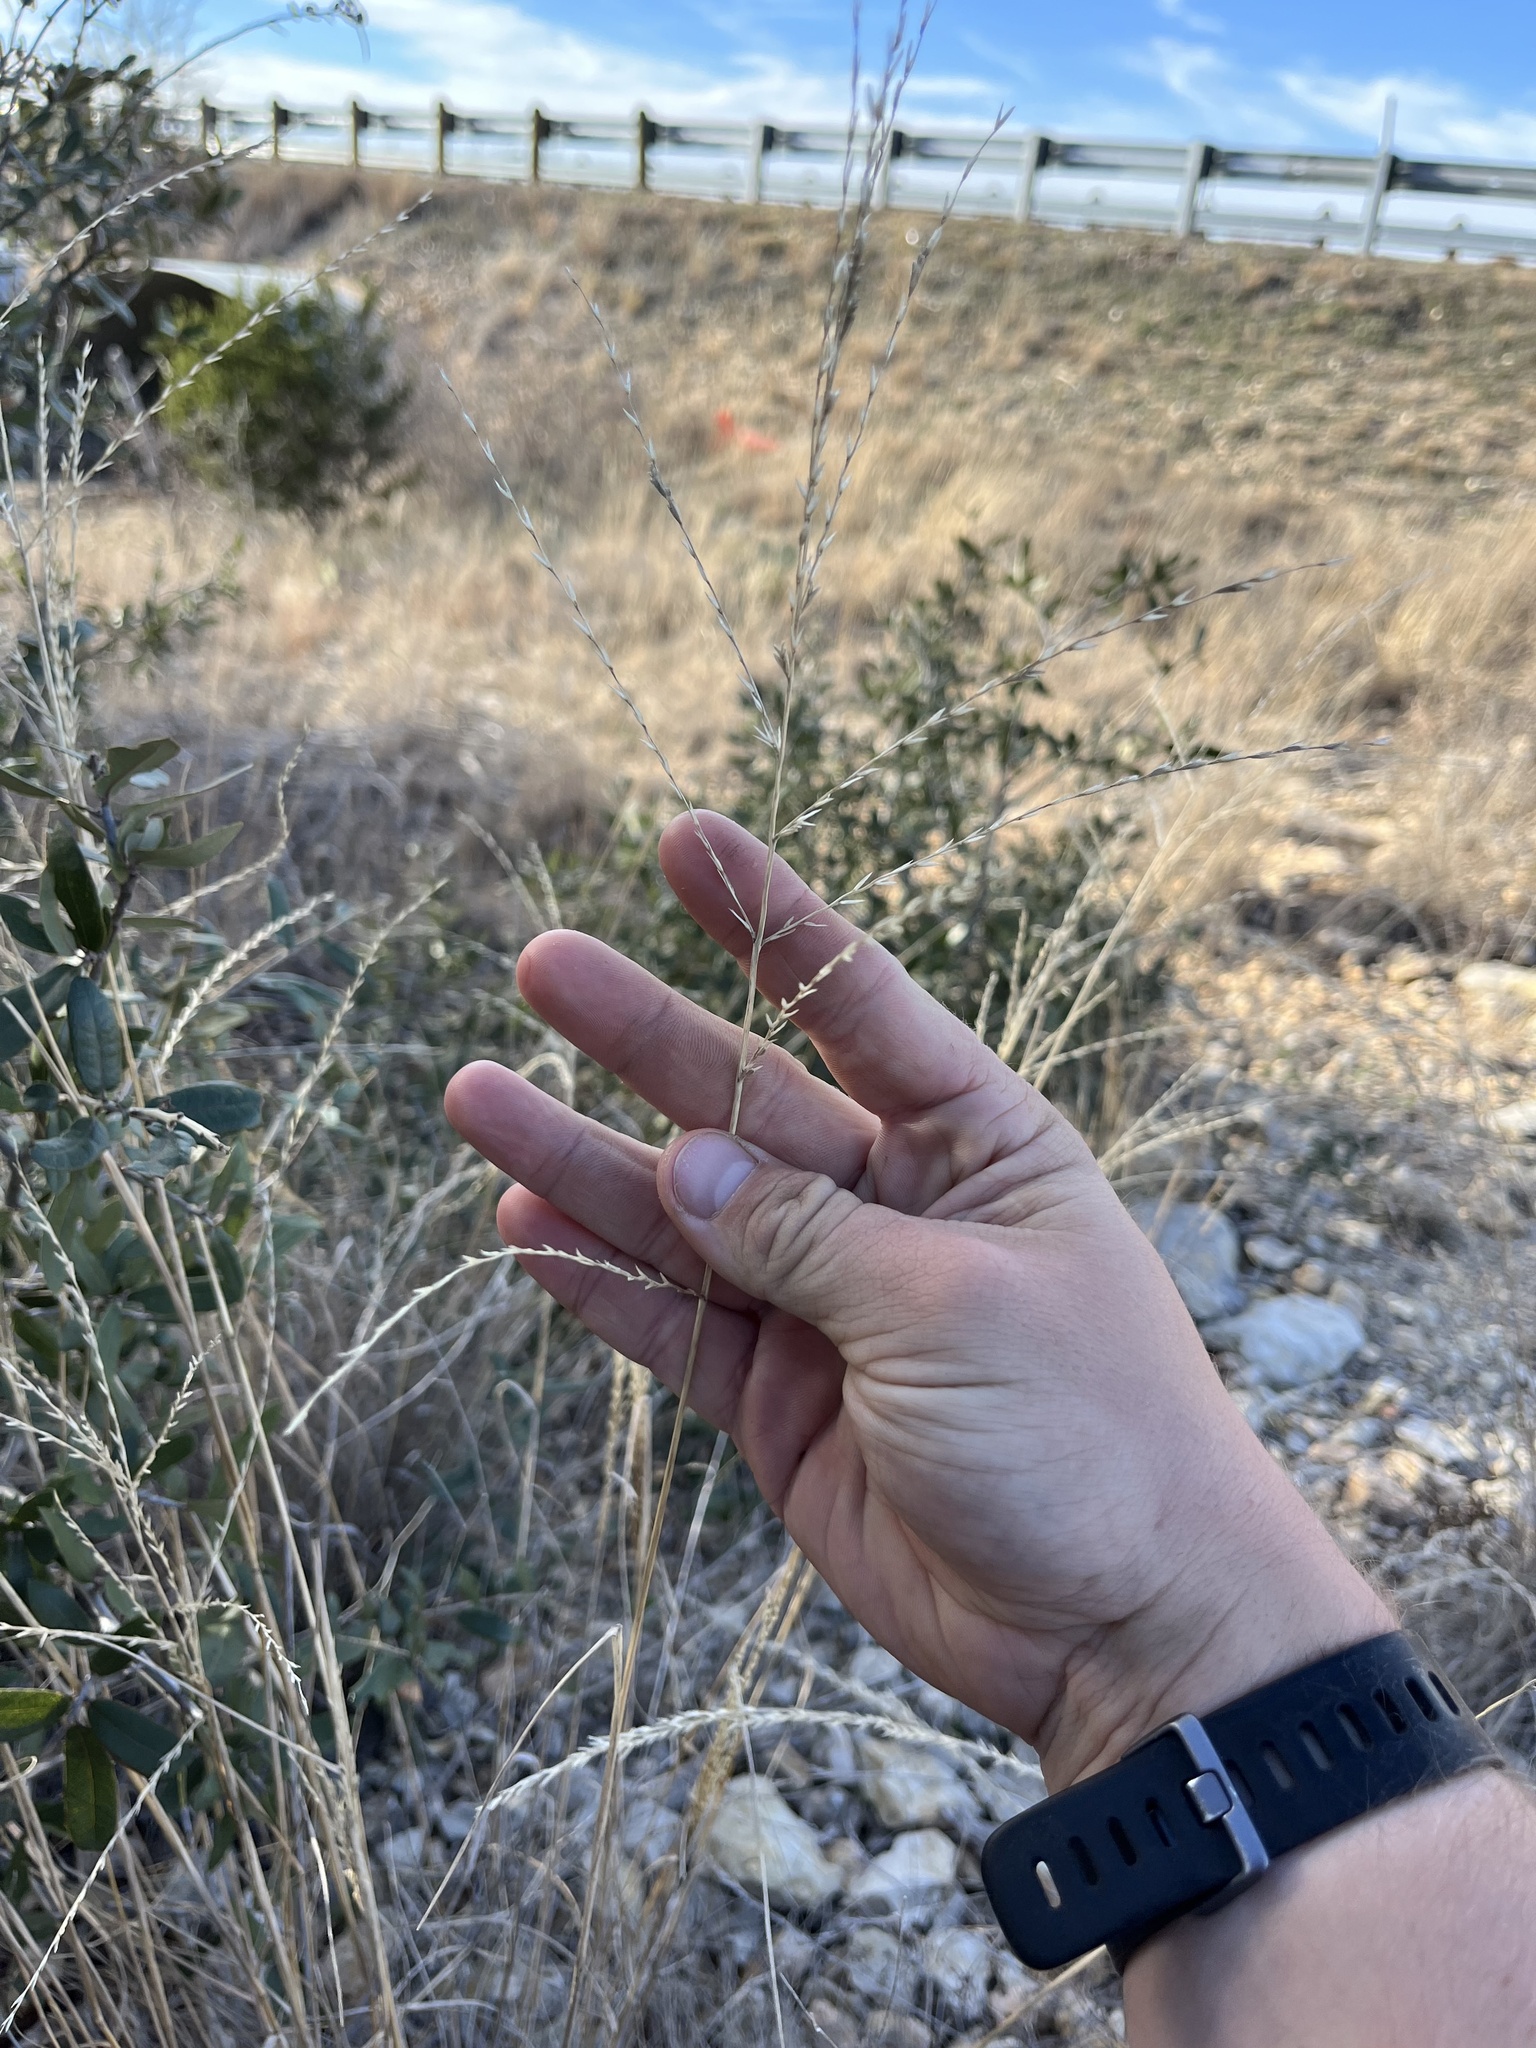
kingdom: Plantae
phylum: Tracheophyta
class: Liliopsida
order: Poales
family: Poaceae
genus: Disakisperma
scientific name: Disakisperma dubium
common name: Green sprangletop
